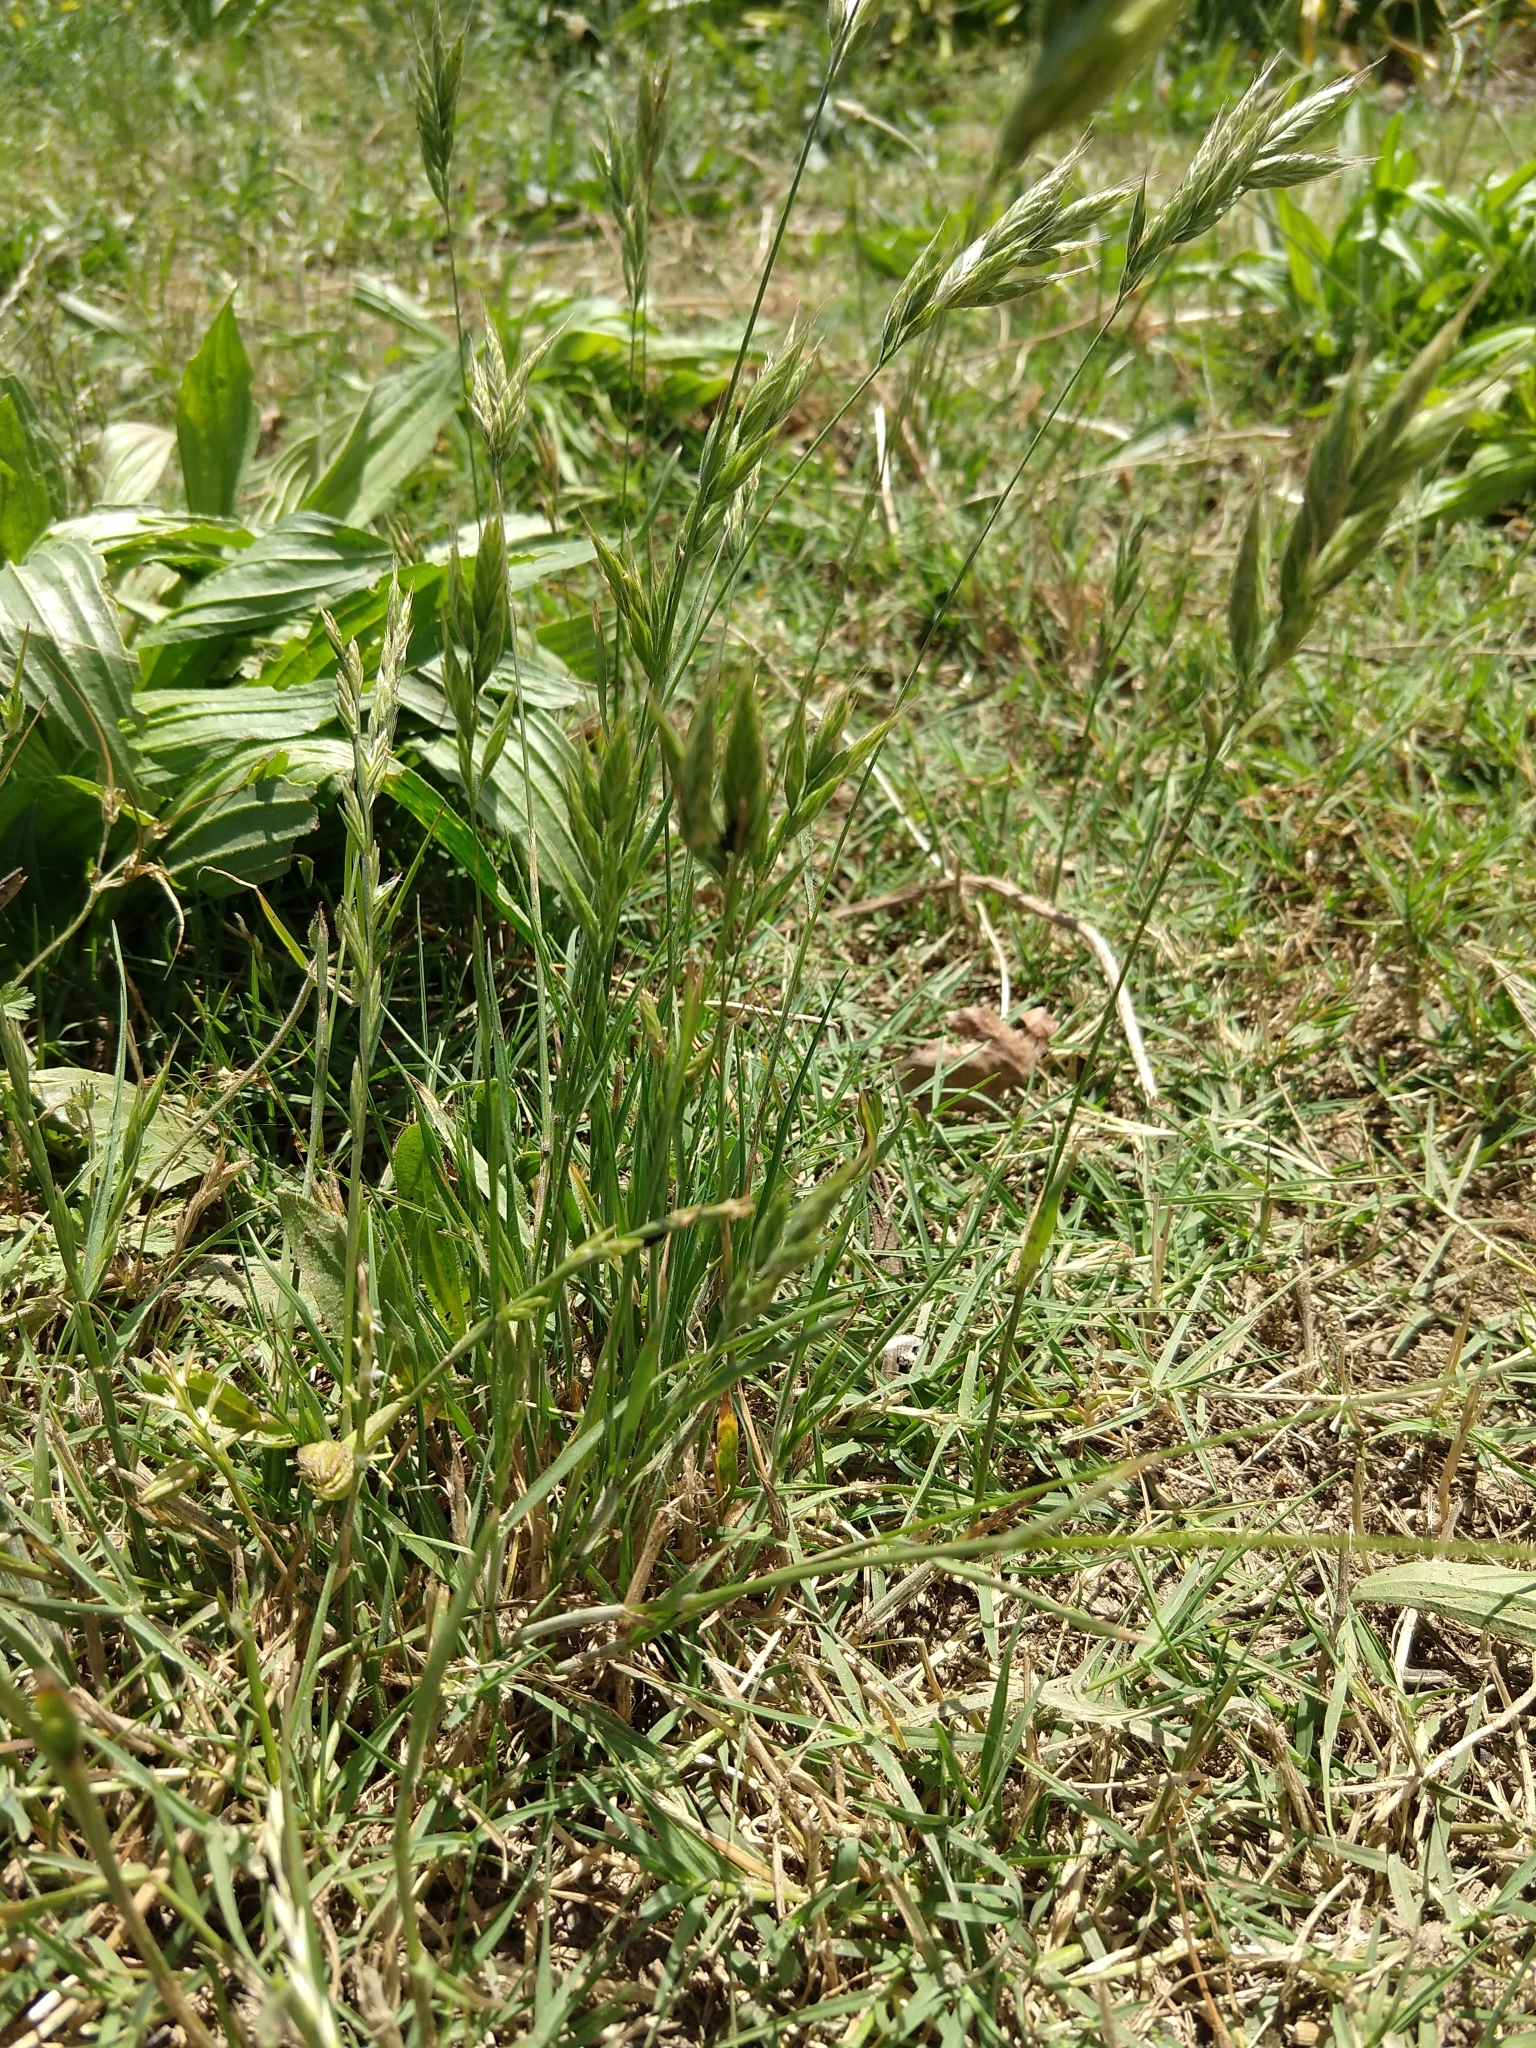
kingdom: Plantae
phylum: Tracheophyta
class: Liliopsida
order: Poales
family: Poaceae
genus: Bromus
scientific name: Bromus hordeaceus
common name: Soft brome
